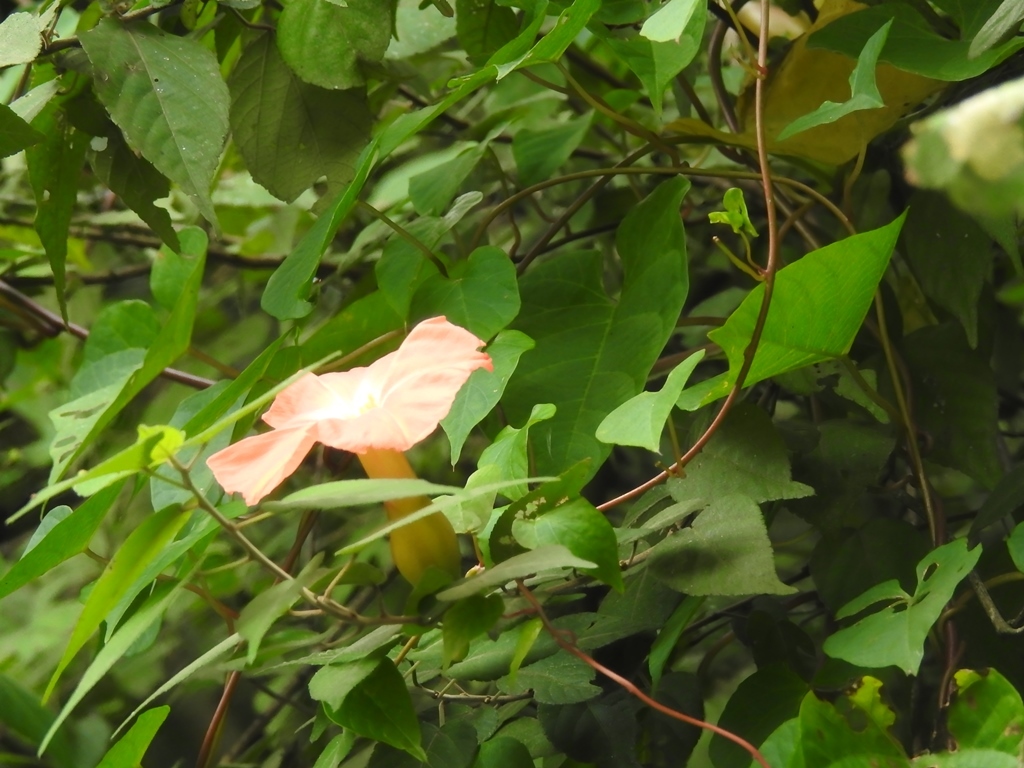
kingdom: Plantae
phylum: Tracheophyta
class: Magnoliopsida
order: Solanales
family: Convolvulaceae
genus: Operculina
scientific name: Operculina pteripes
